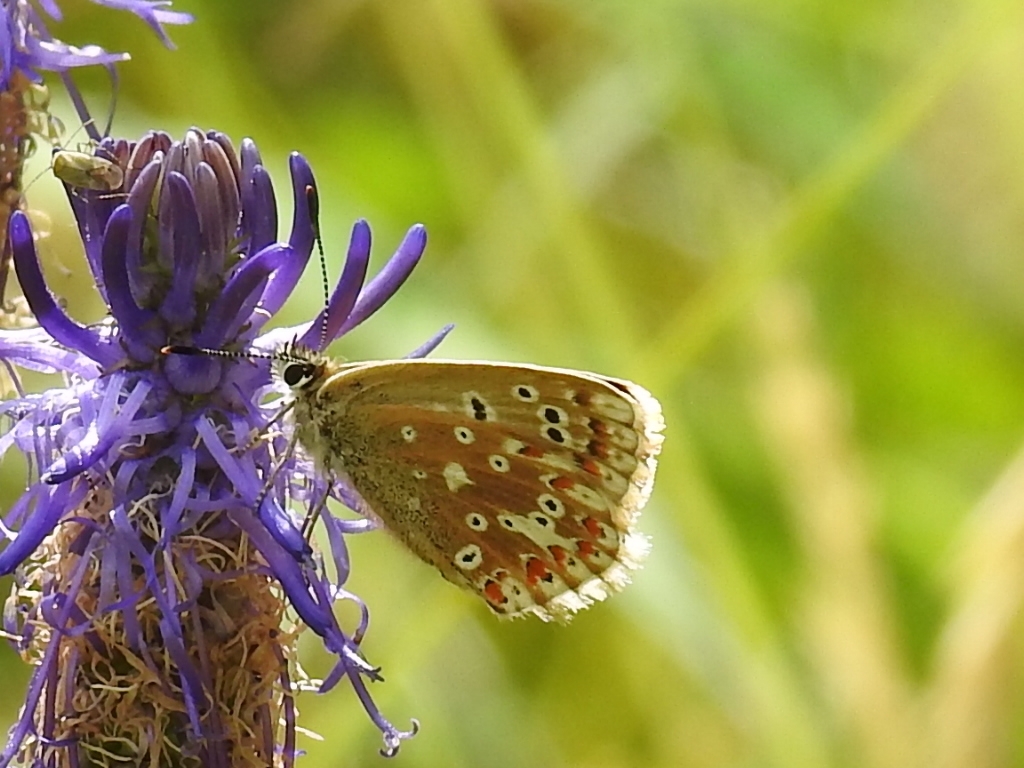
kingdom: Animalia
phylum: Arthropoda
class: Insecta
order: Lepidoptera
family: Lycaenidae
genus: Lysandra
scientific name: Lysandra coridon
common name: Chalkhill blue
